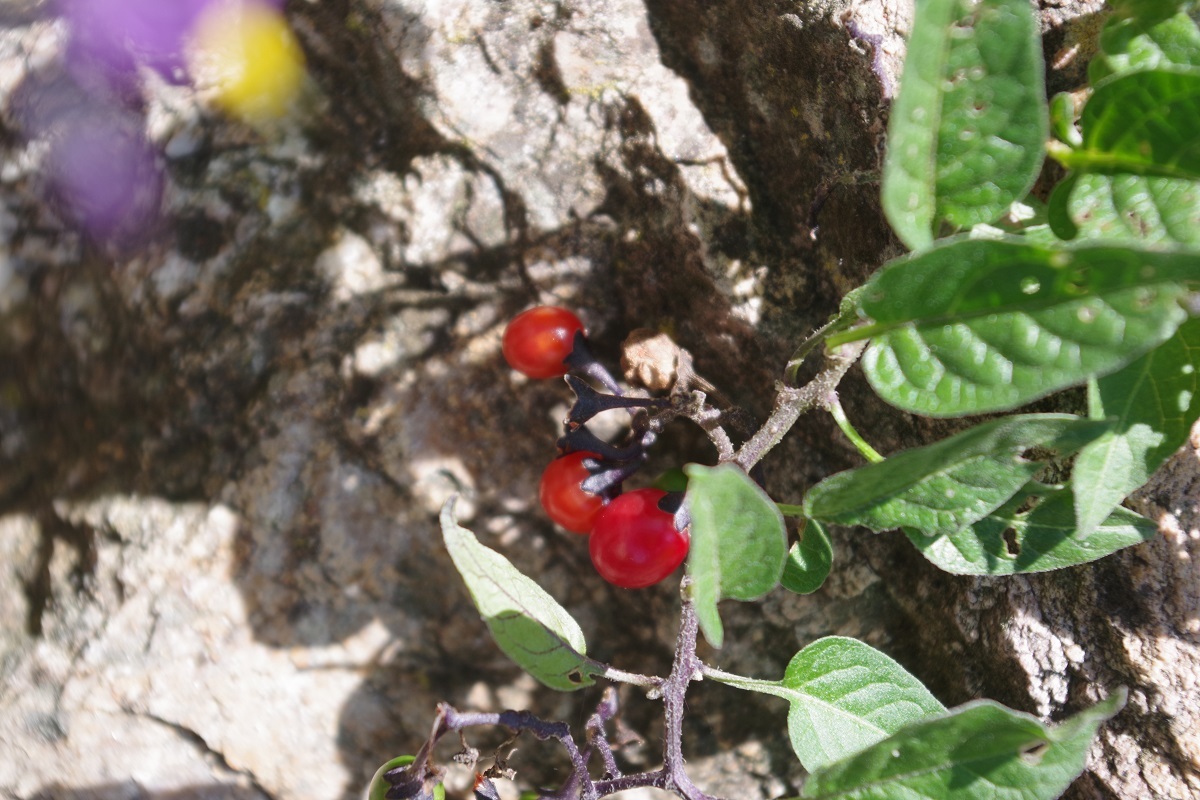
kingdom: Plantae
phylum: Tracheophyta
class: Magnoliopsida
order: Solanales
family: Solanaceae
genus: Solanum
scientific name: Solanum dulcamara
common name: Climbing nightshade
